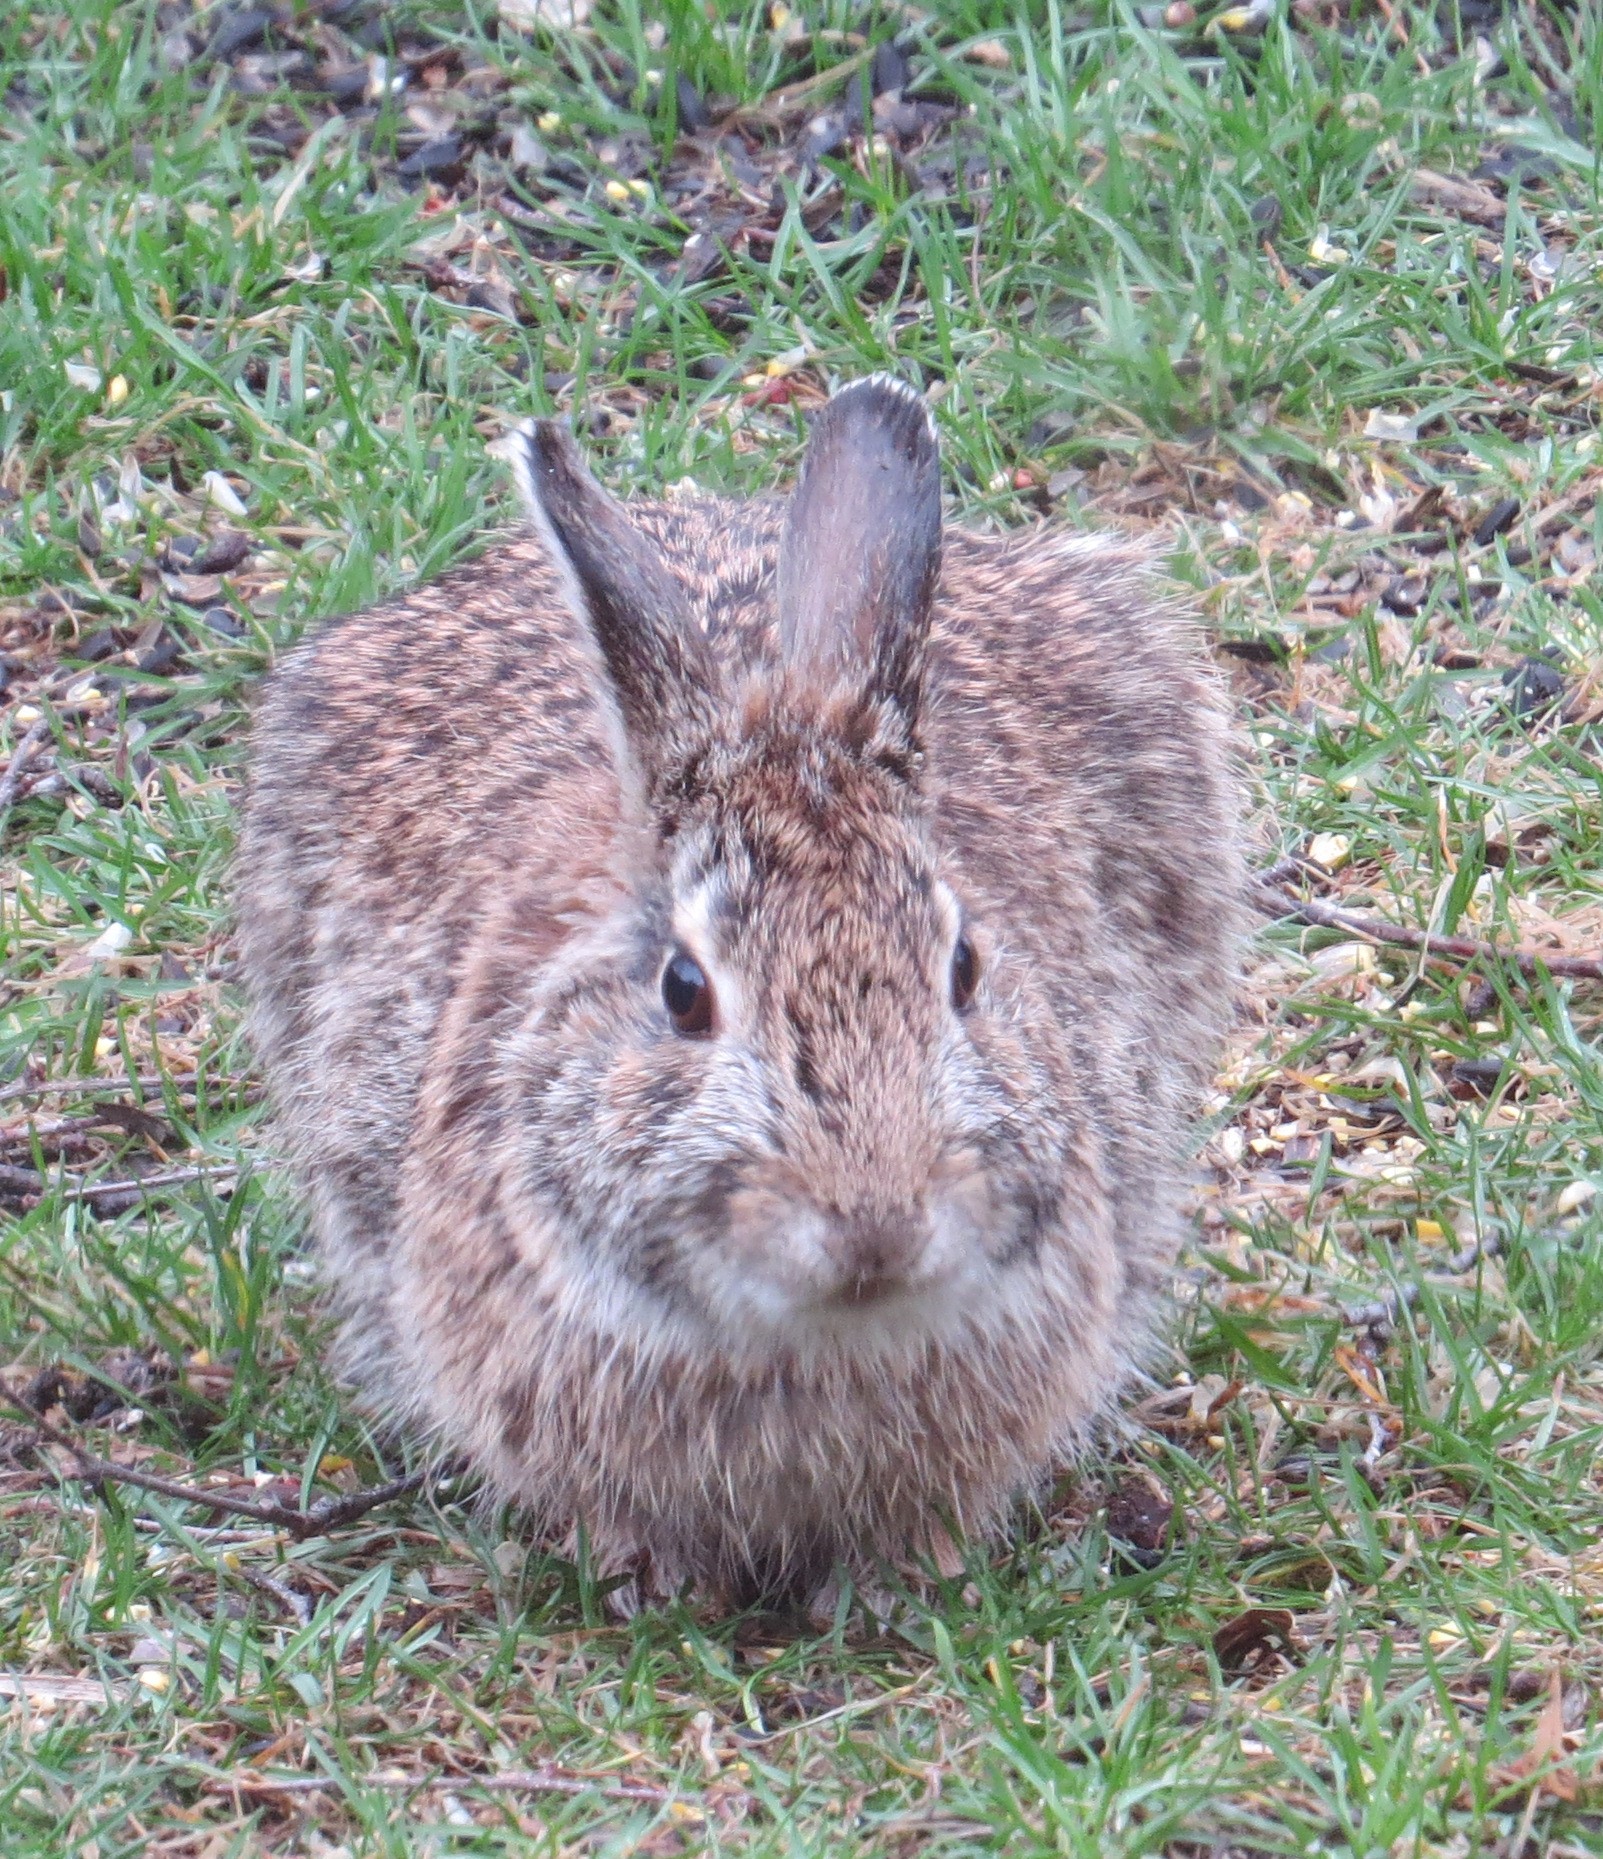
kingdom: Animalia
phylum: Chordata
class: Mammalia
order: Lagomorpha
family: Leporidae
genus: Sylvilagus
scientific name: Sylvilagus floridanus
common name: Eastern cottontail
